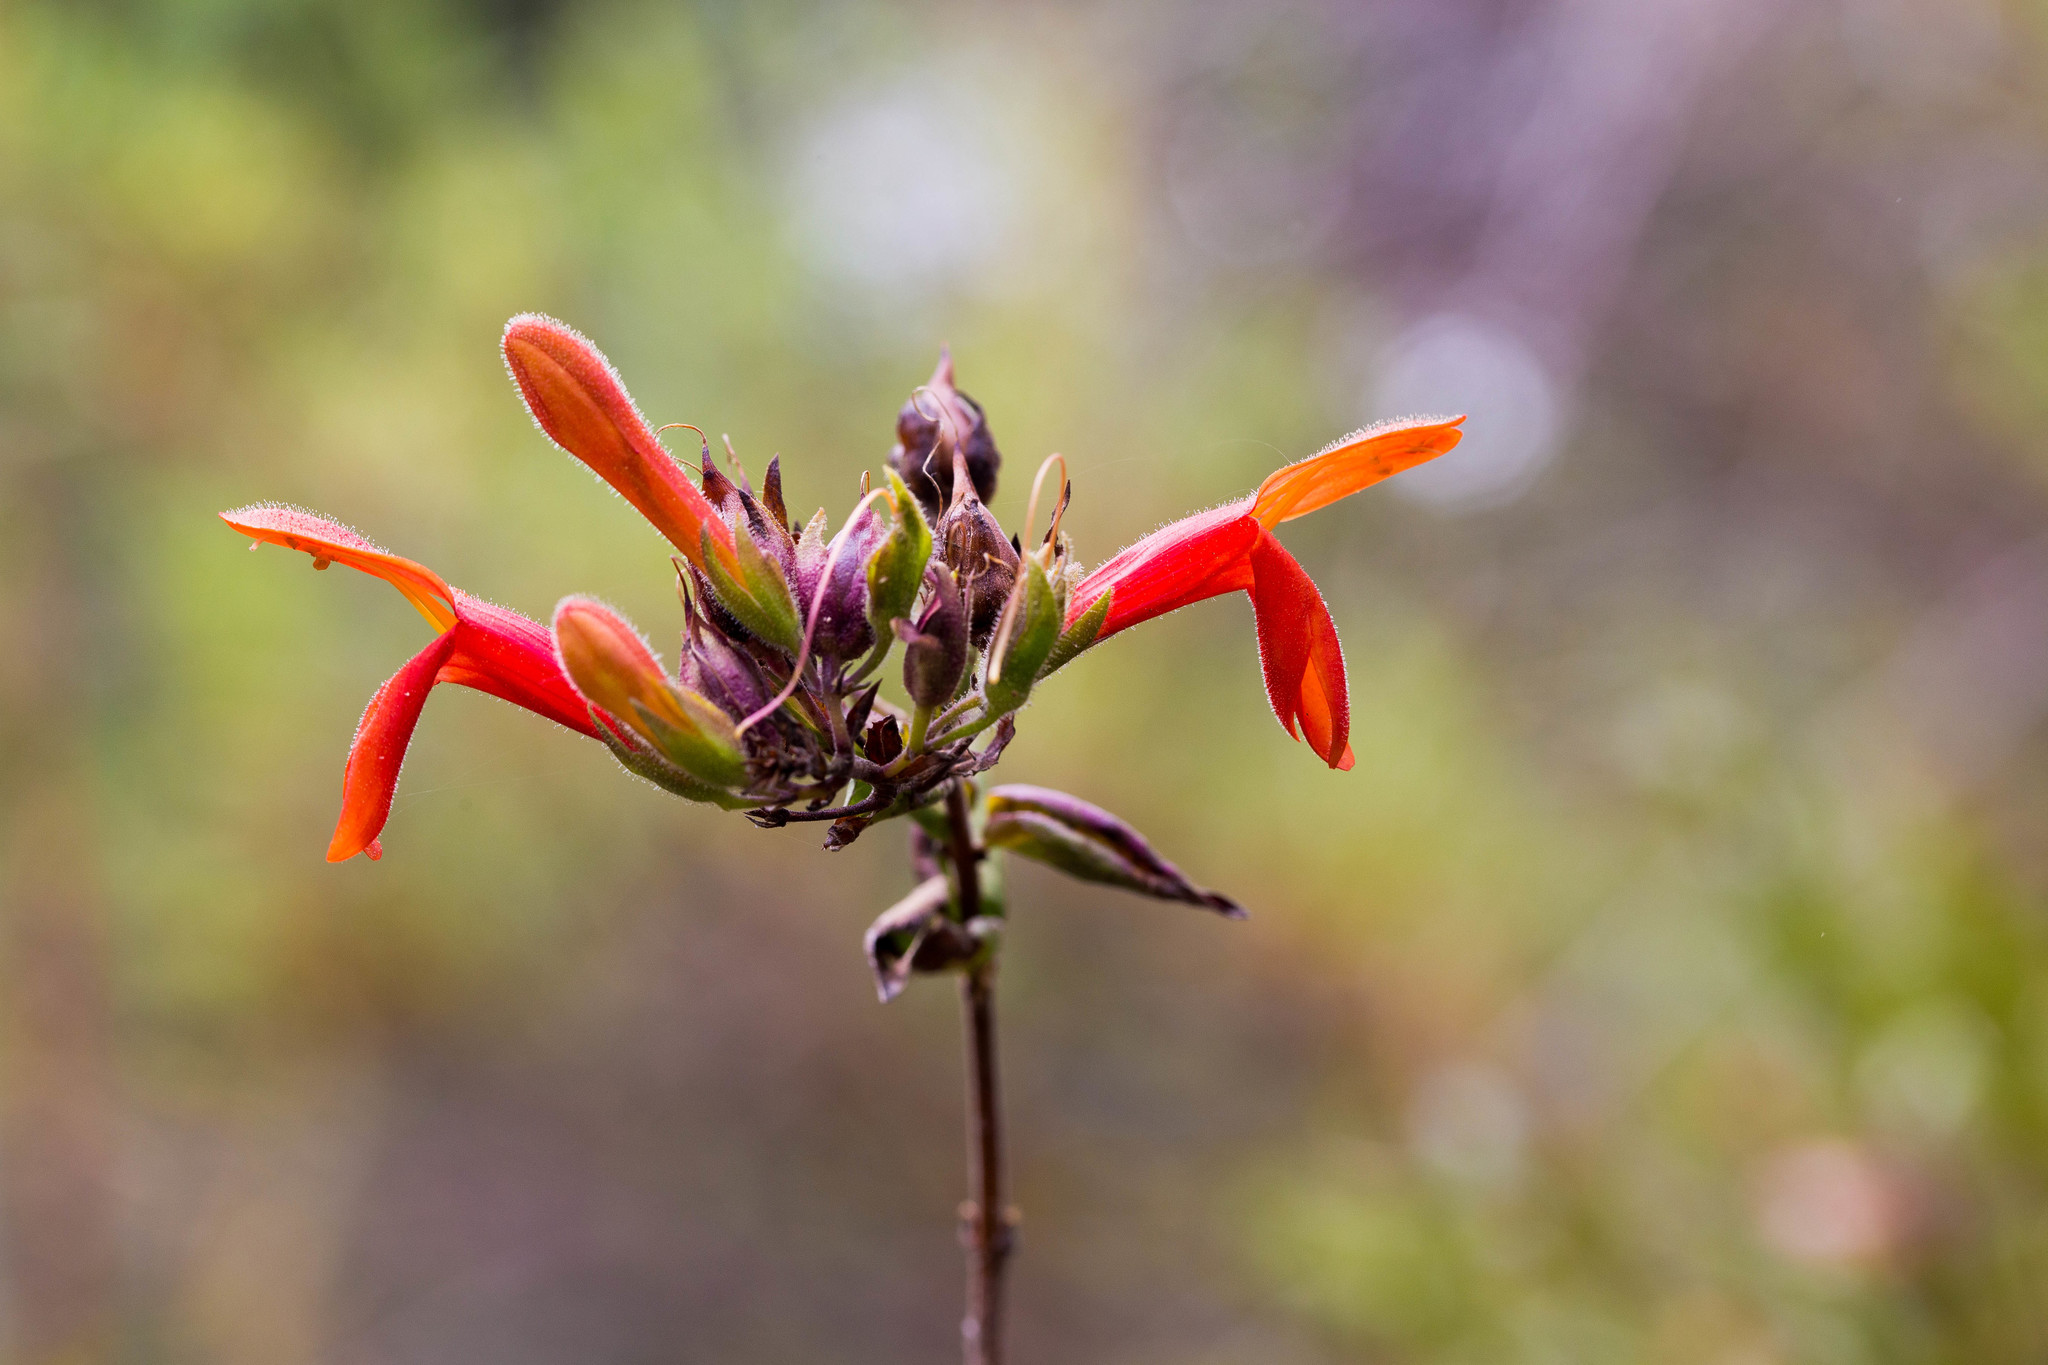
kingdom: Plantae
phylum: Tracheophyta
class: Magnoliopsida
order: Lamiales
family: Plantaginaceae
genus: Keckiella
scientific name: Keckiella cordifolia
